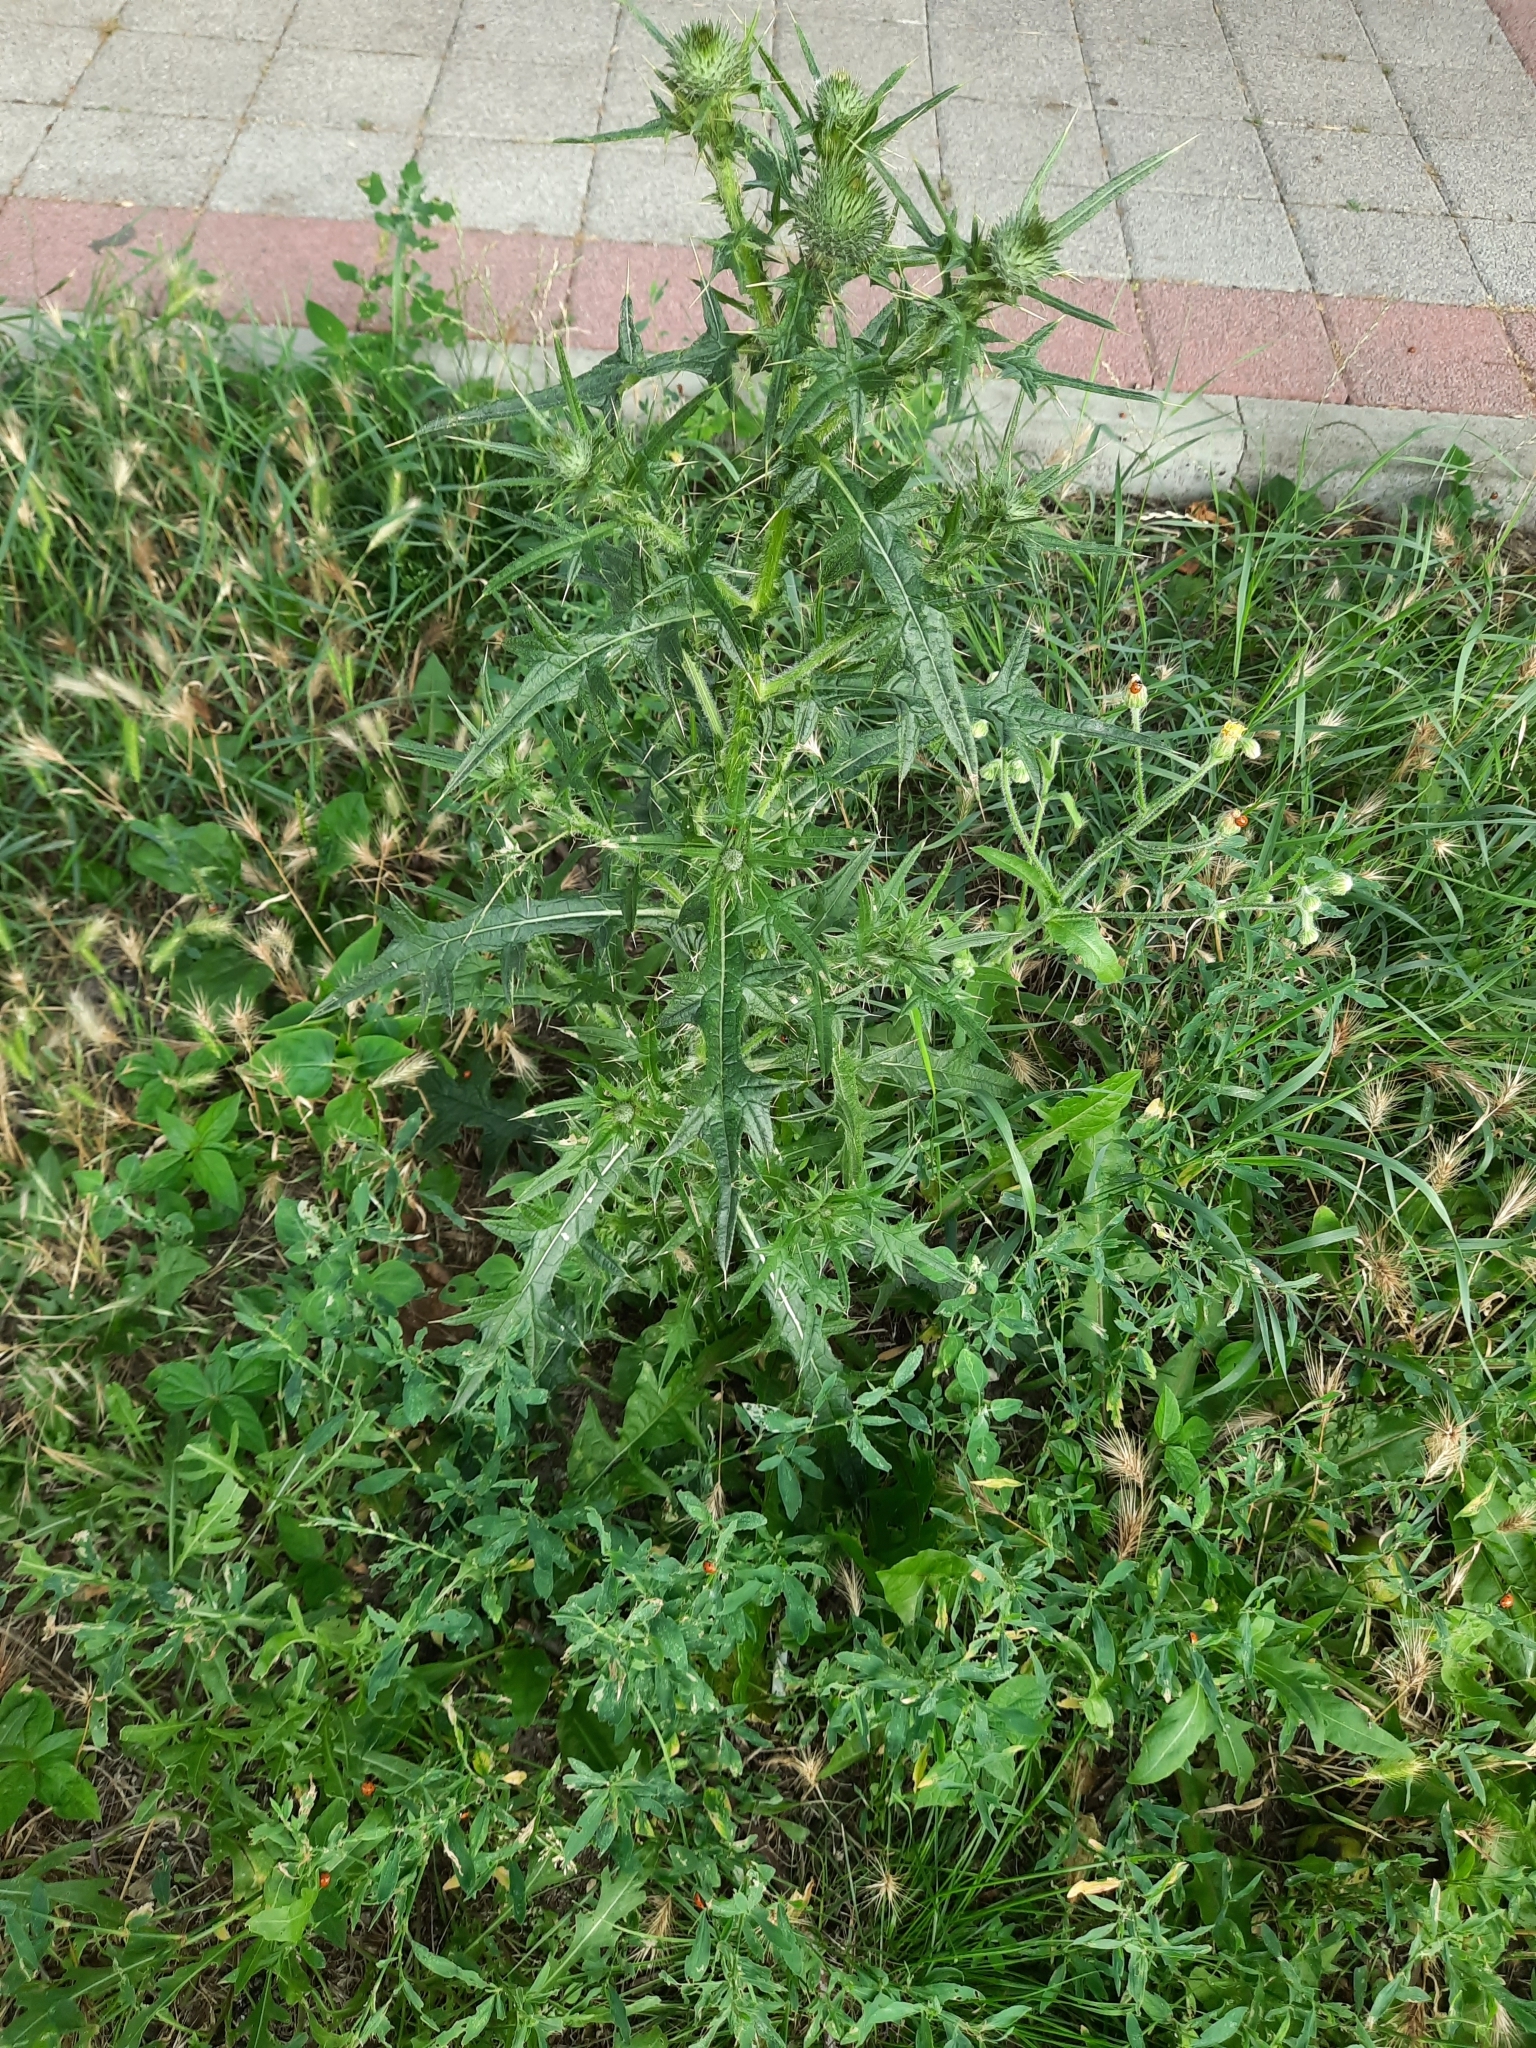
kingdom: Plantae
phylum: Tracheophyta
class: Magnoliopsida
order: Asterales
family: Asteraceae
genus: Cirsium
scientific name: Cirsium vulgare
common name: Bull thistle
